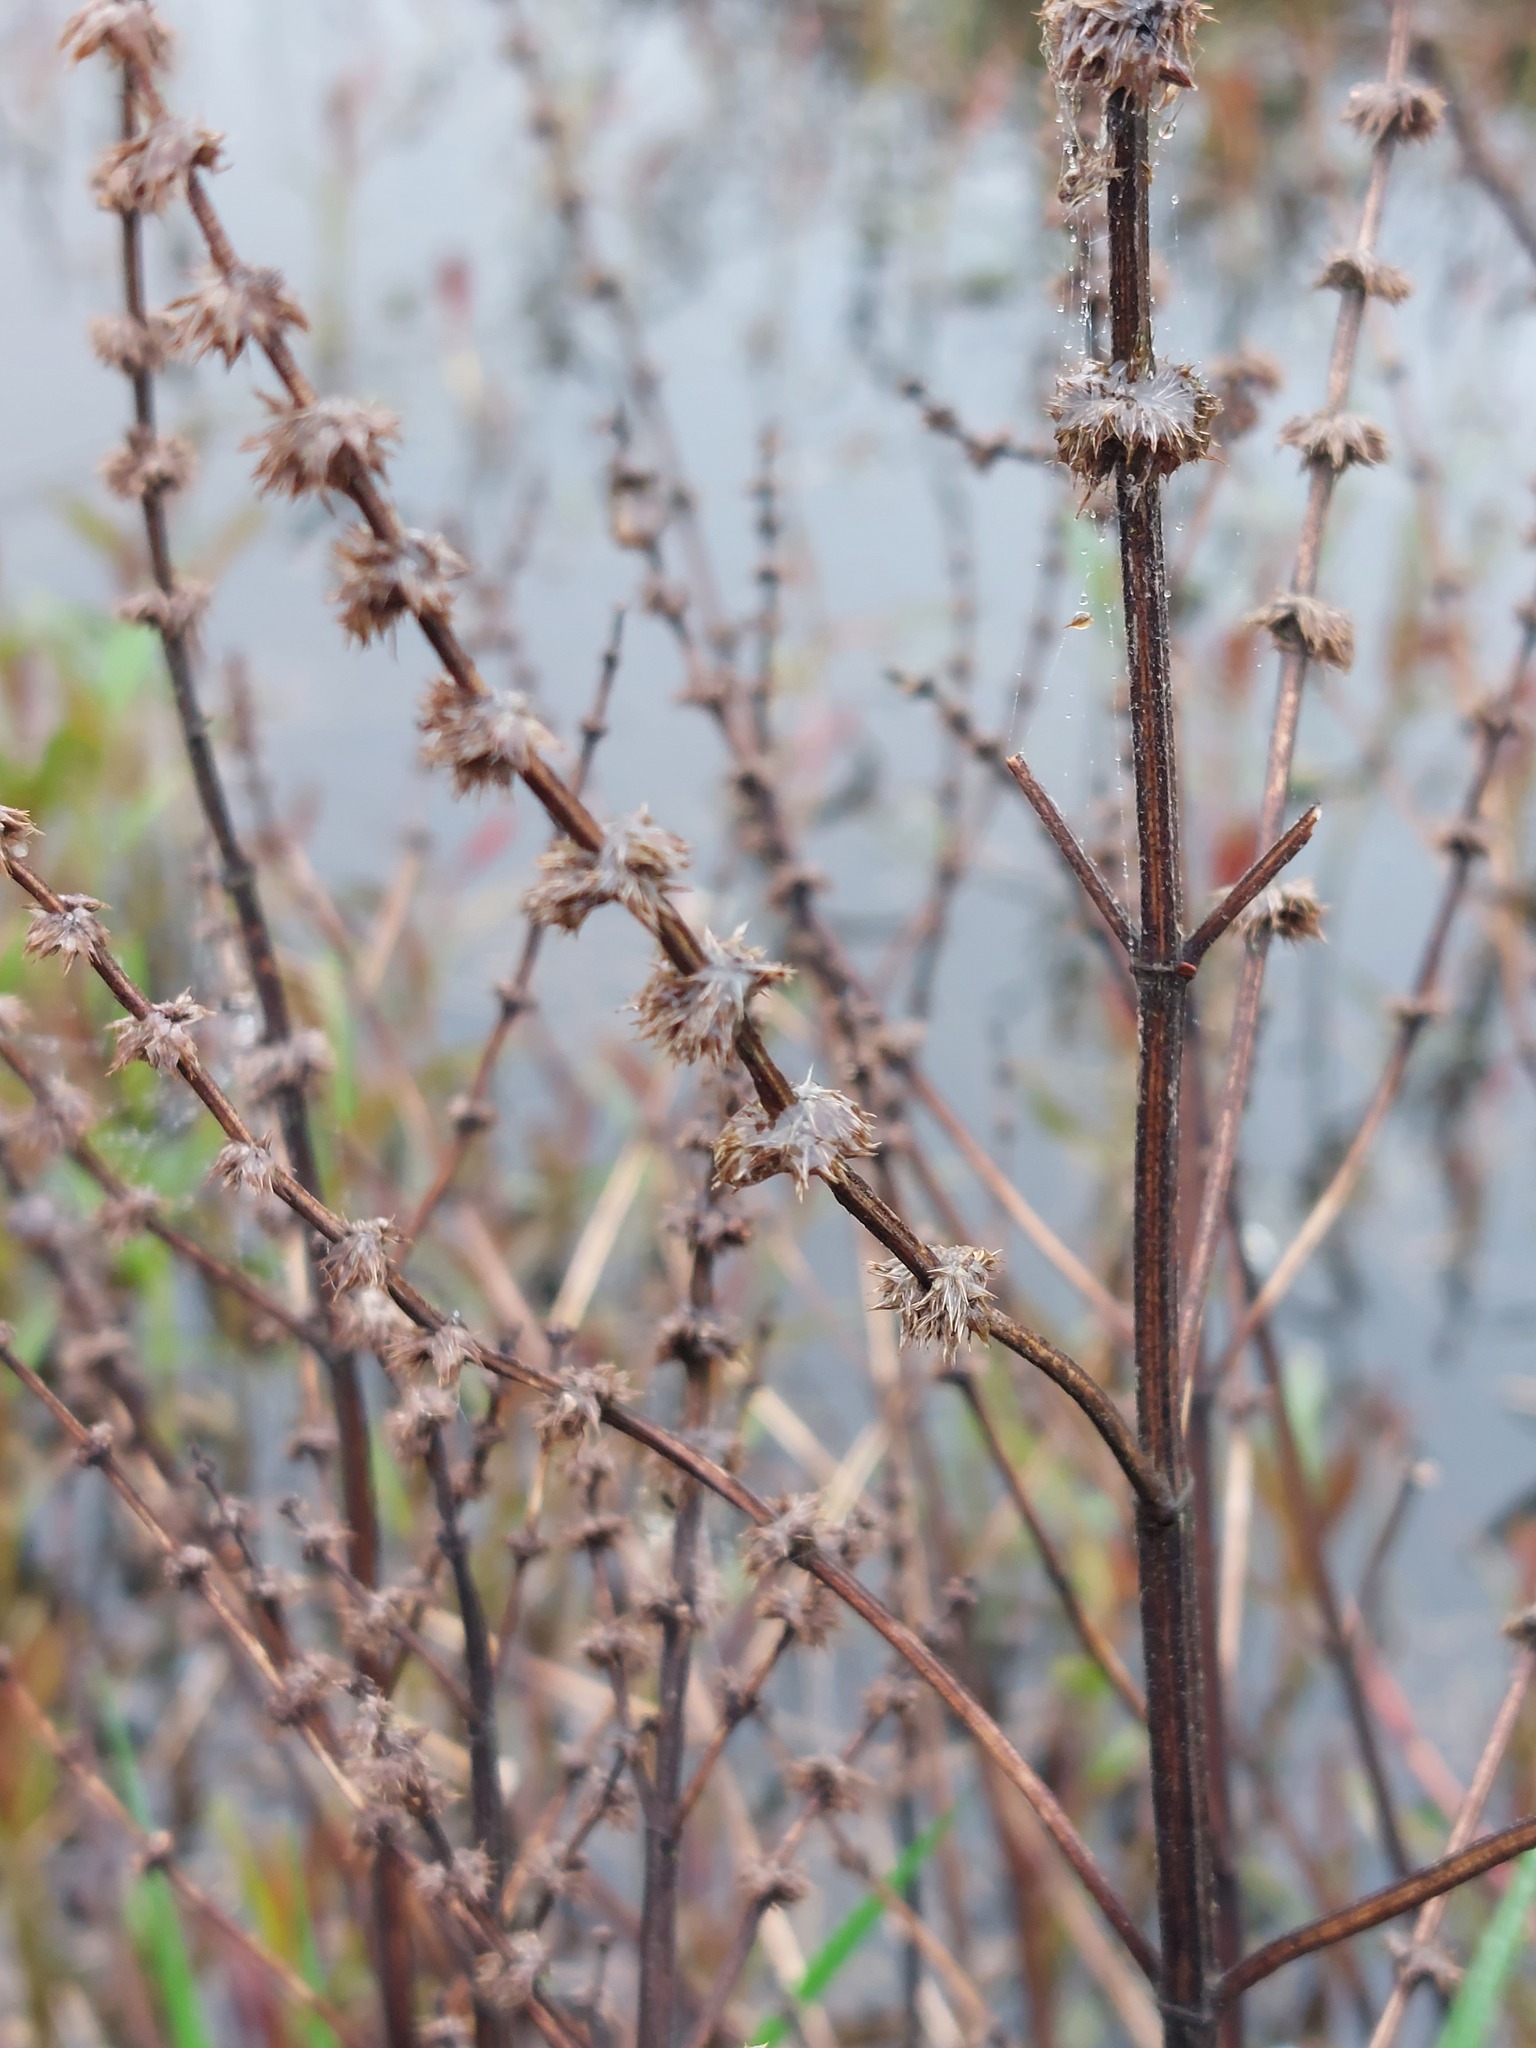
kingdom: Plantae
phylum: Tracheophyta
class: Magnoliopsida
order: Lamiales
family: Lamiaceae
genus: Lycopus
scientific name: Lycopus europaeus
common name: European bugleweed
